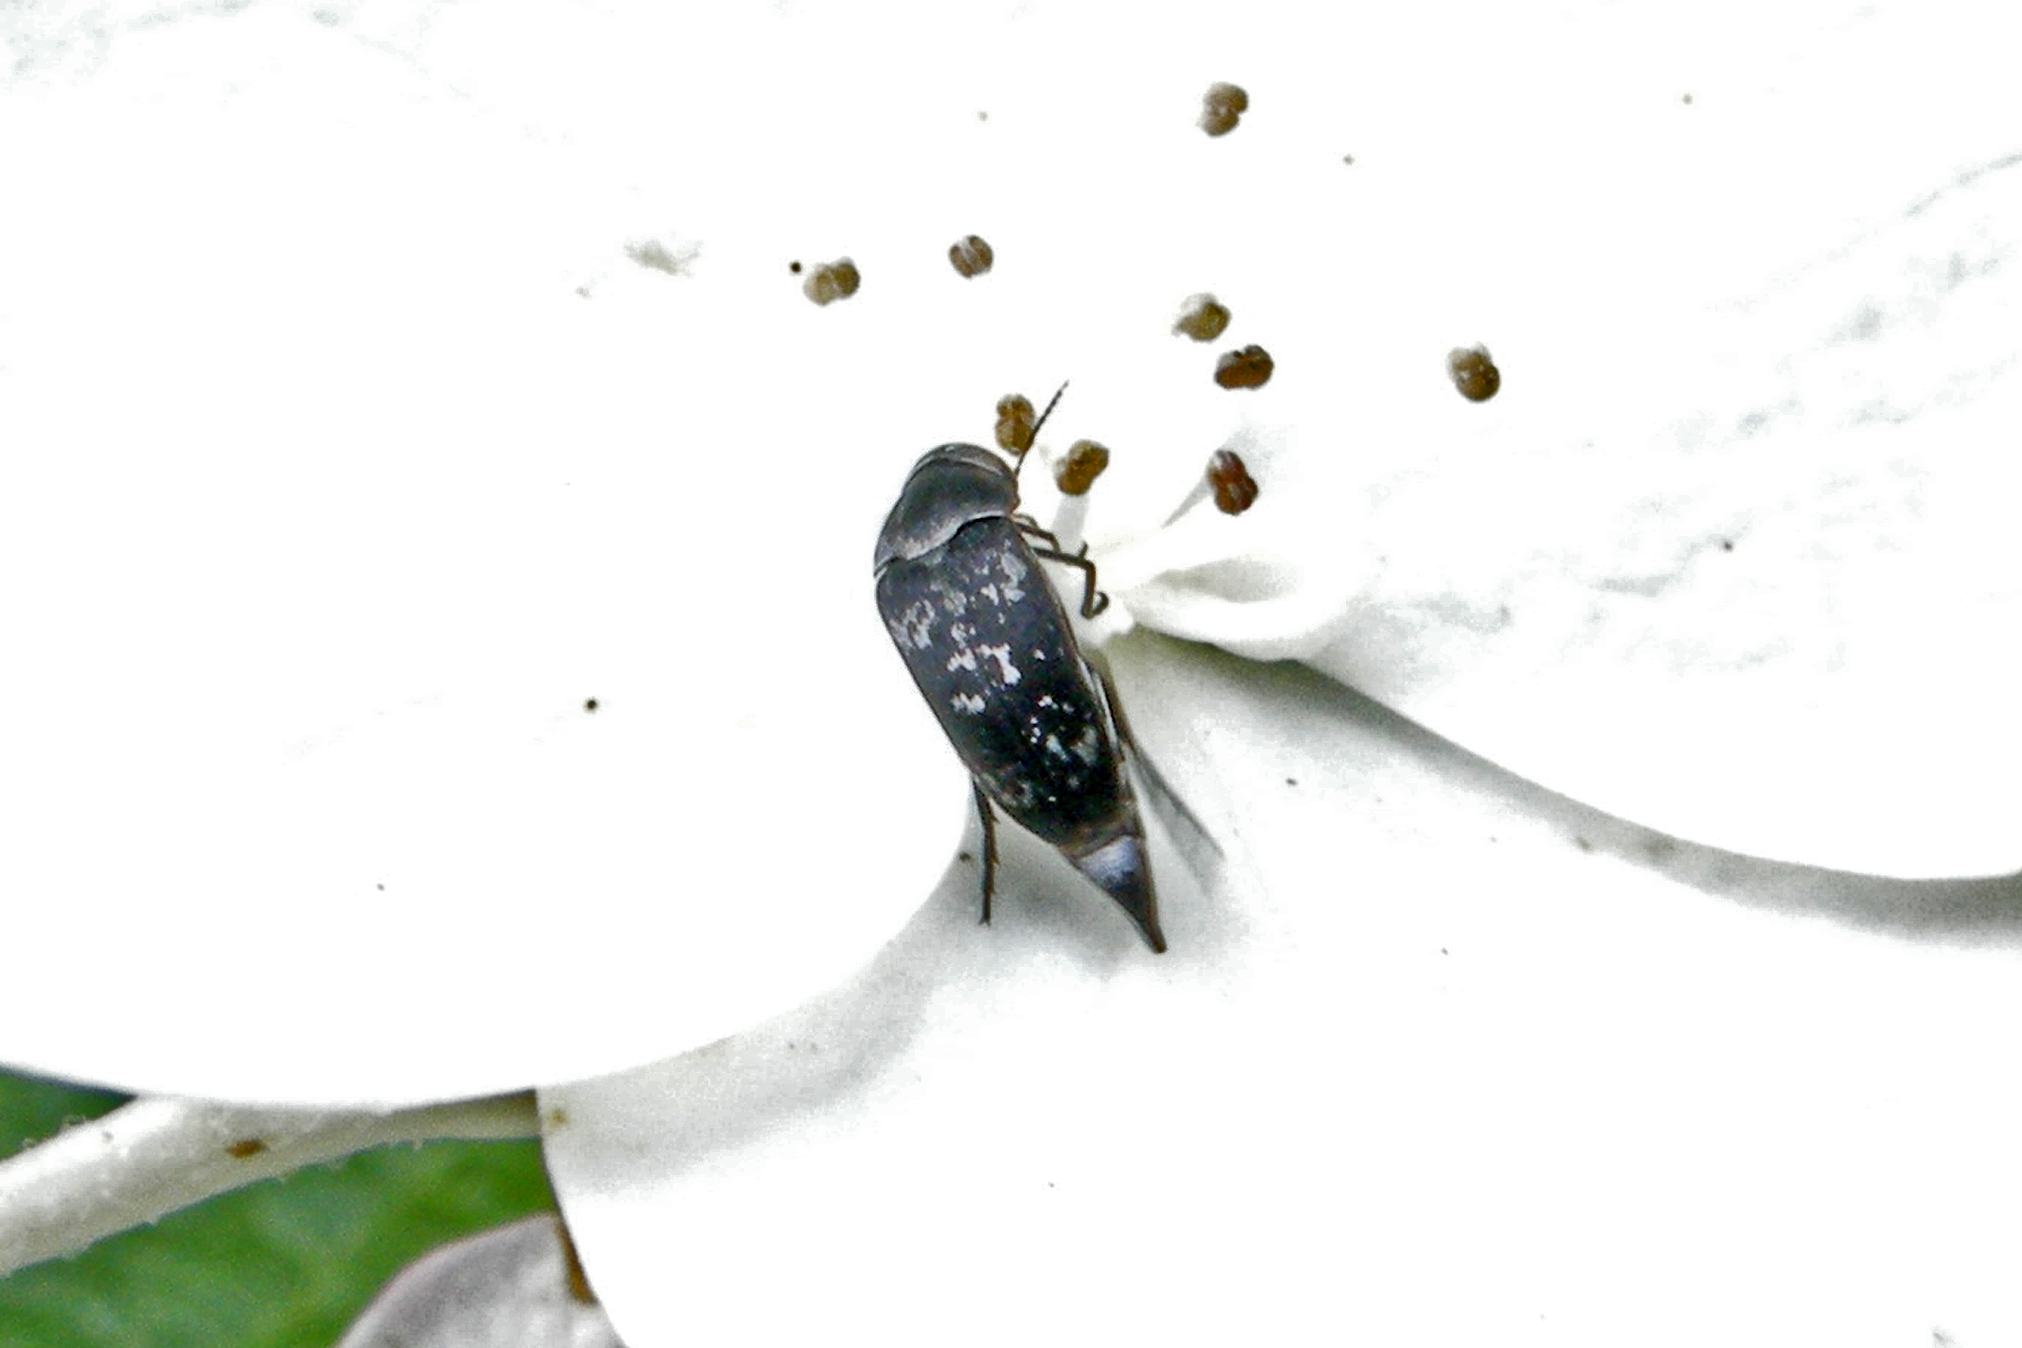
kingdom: Animalia
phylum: Arthropoda
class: Insecta
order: Coleoptera
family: Mordellidae
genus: Mordella
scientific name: Mordella marginata
